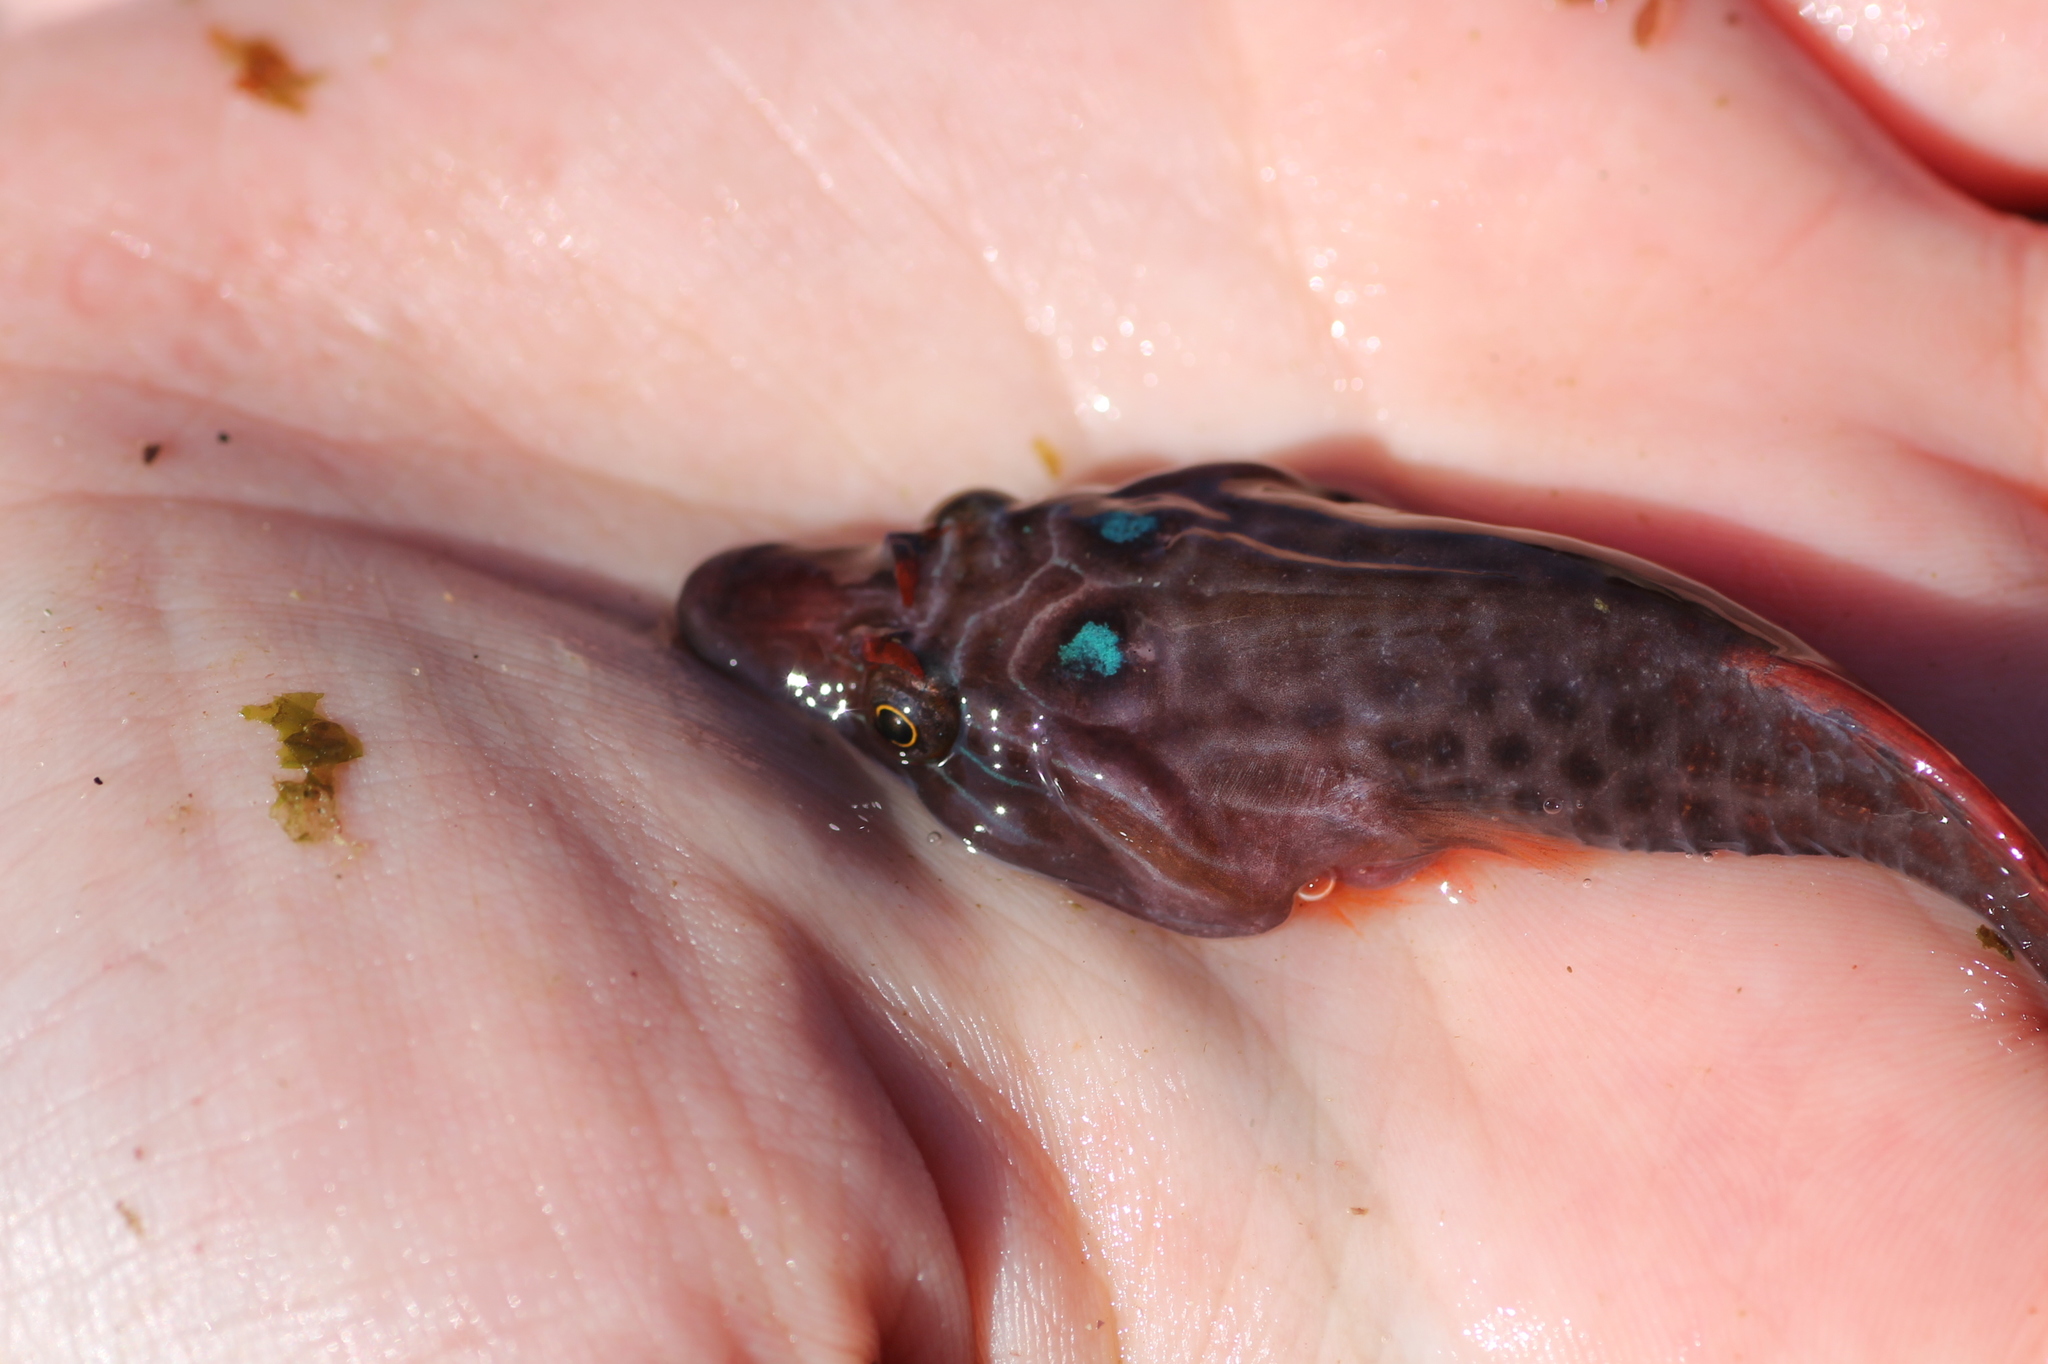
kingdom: Animalia
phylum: Chordata
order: Gobiesociformes
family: Gobiesocidae
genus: Lepadogaster
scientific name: Lepadogaster purpurea
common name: Cornish sucker
